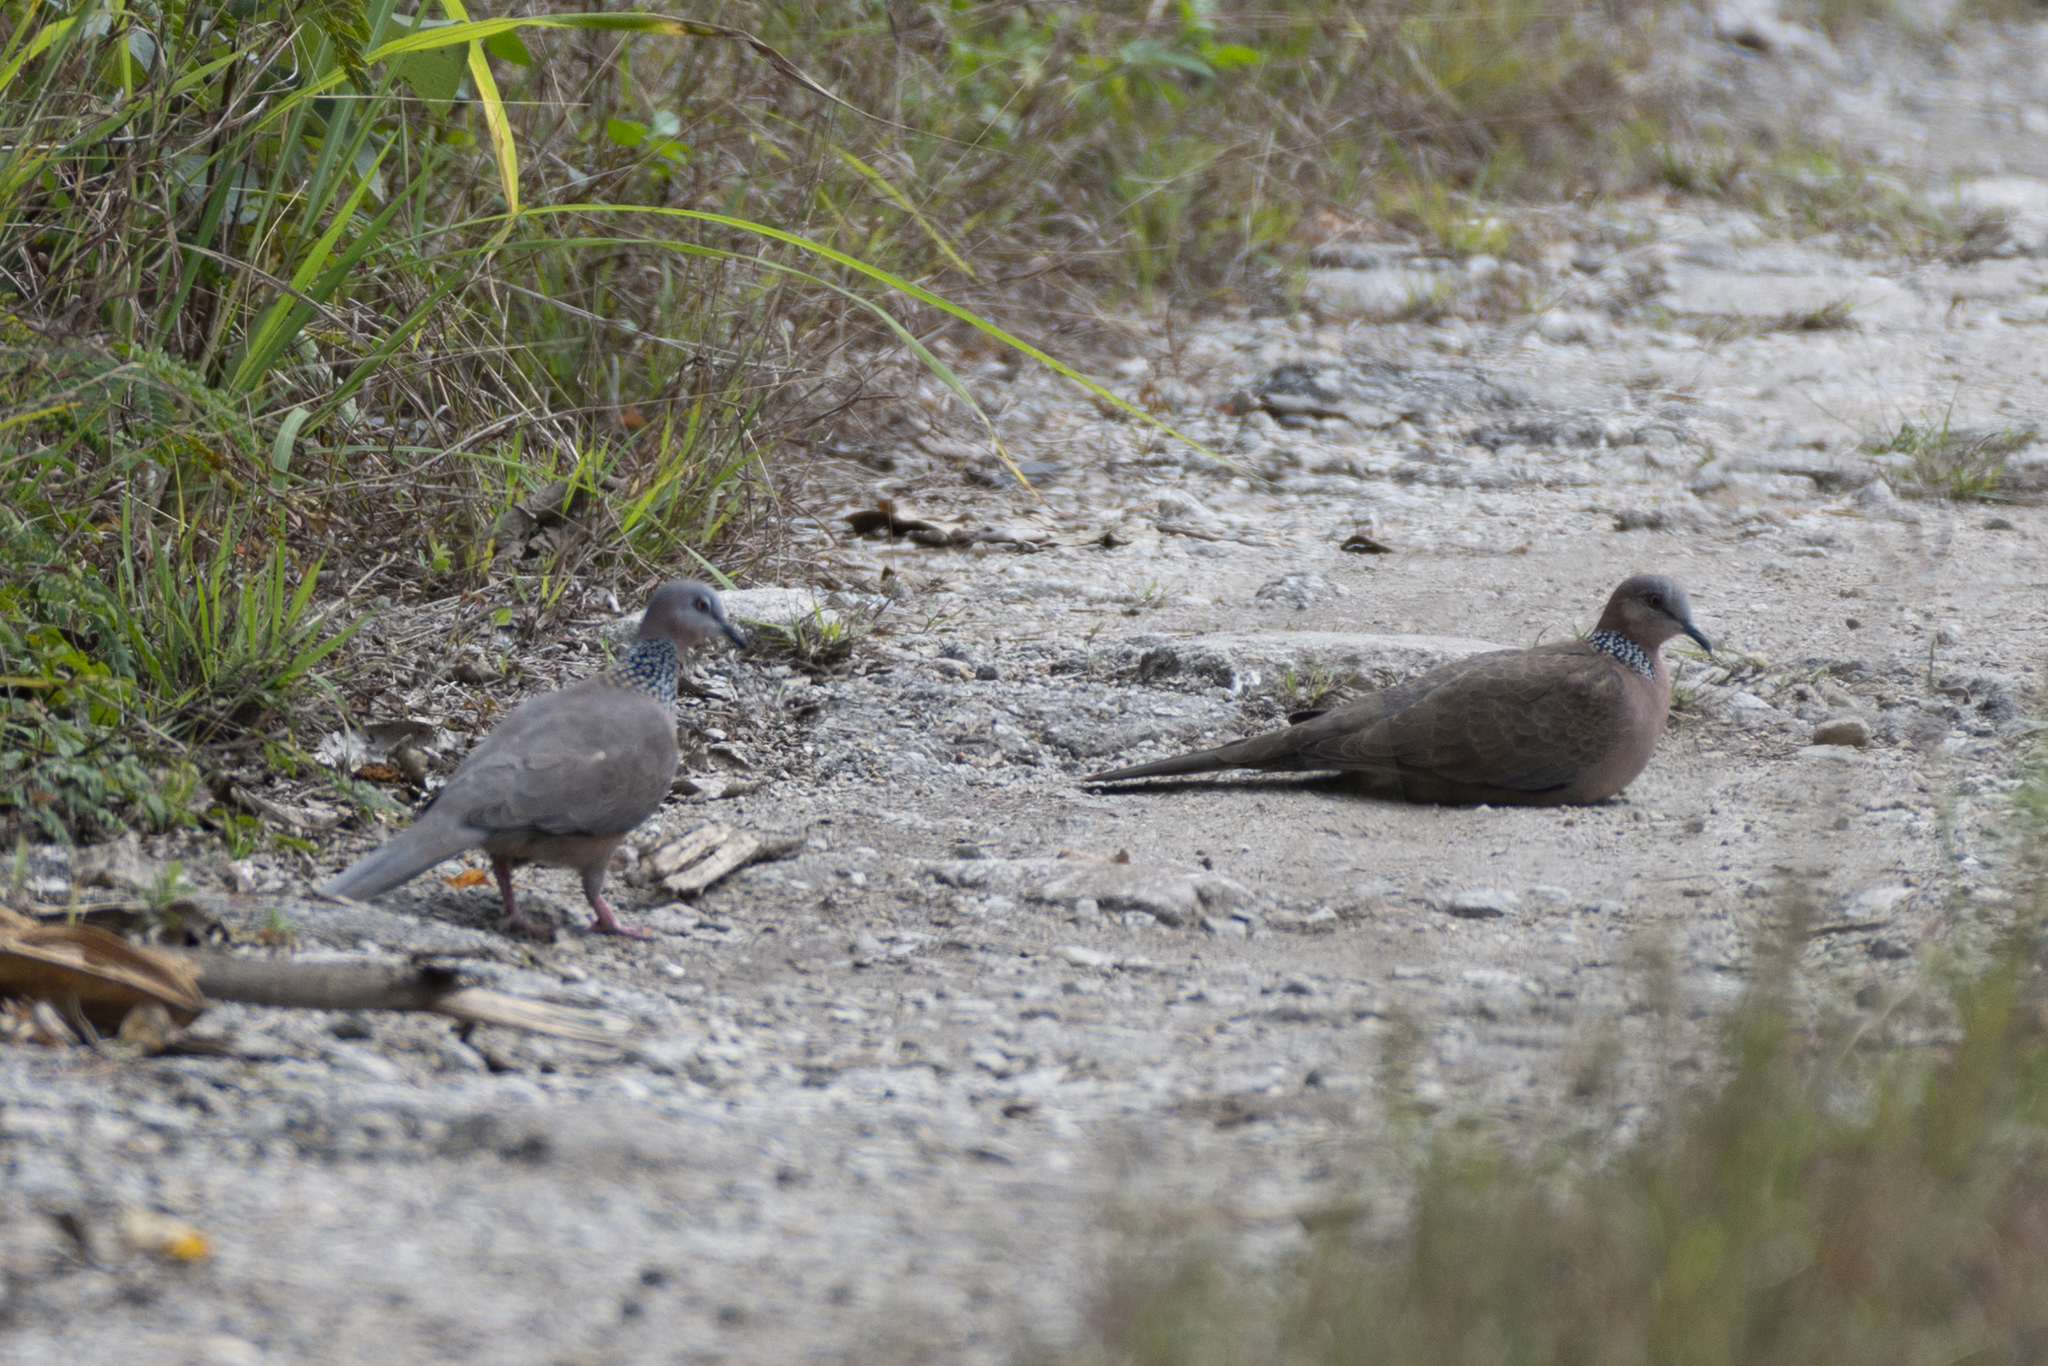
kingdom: Animalia
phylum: Chordata
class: Aves
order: Columbiformes
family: Columbidae
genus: Spilopelia
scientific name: Spilopelia chinensis
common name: Spotted dove
